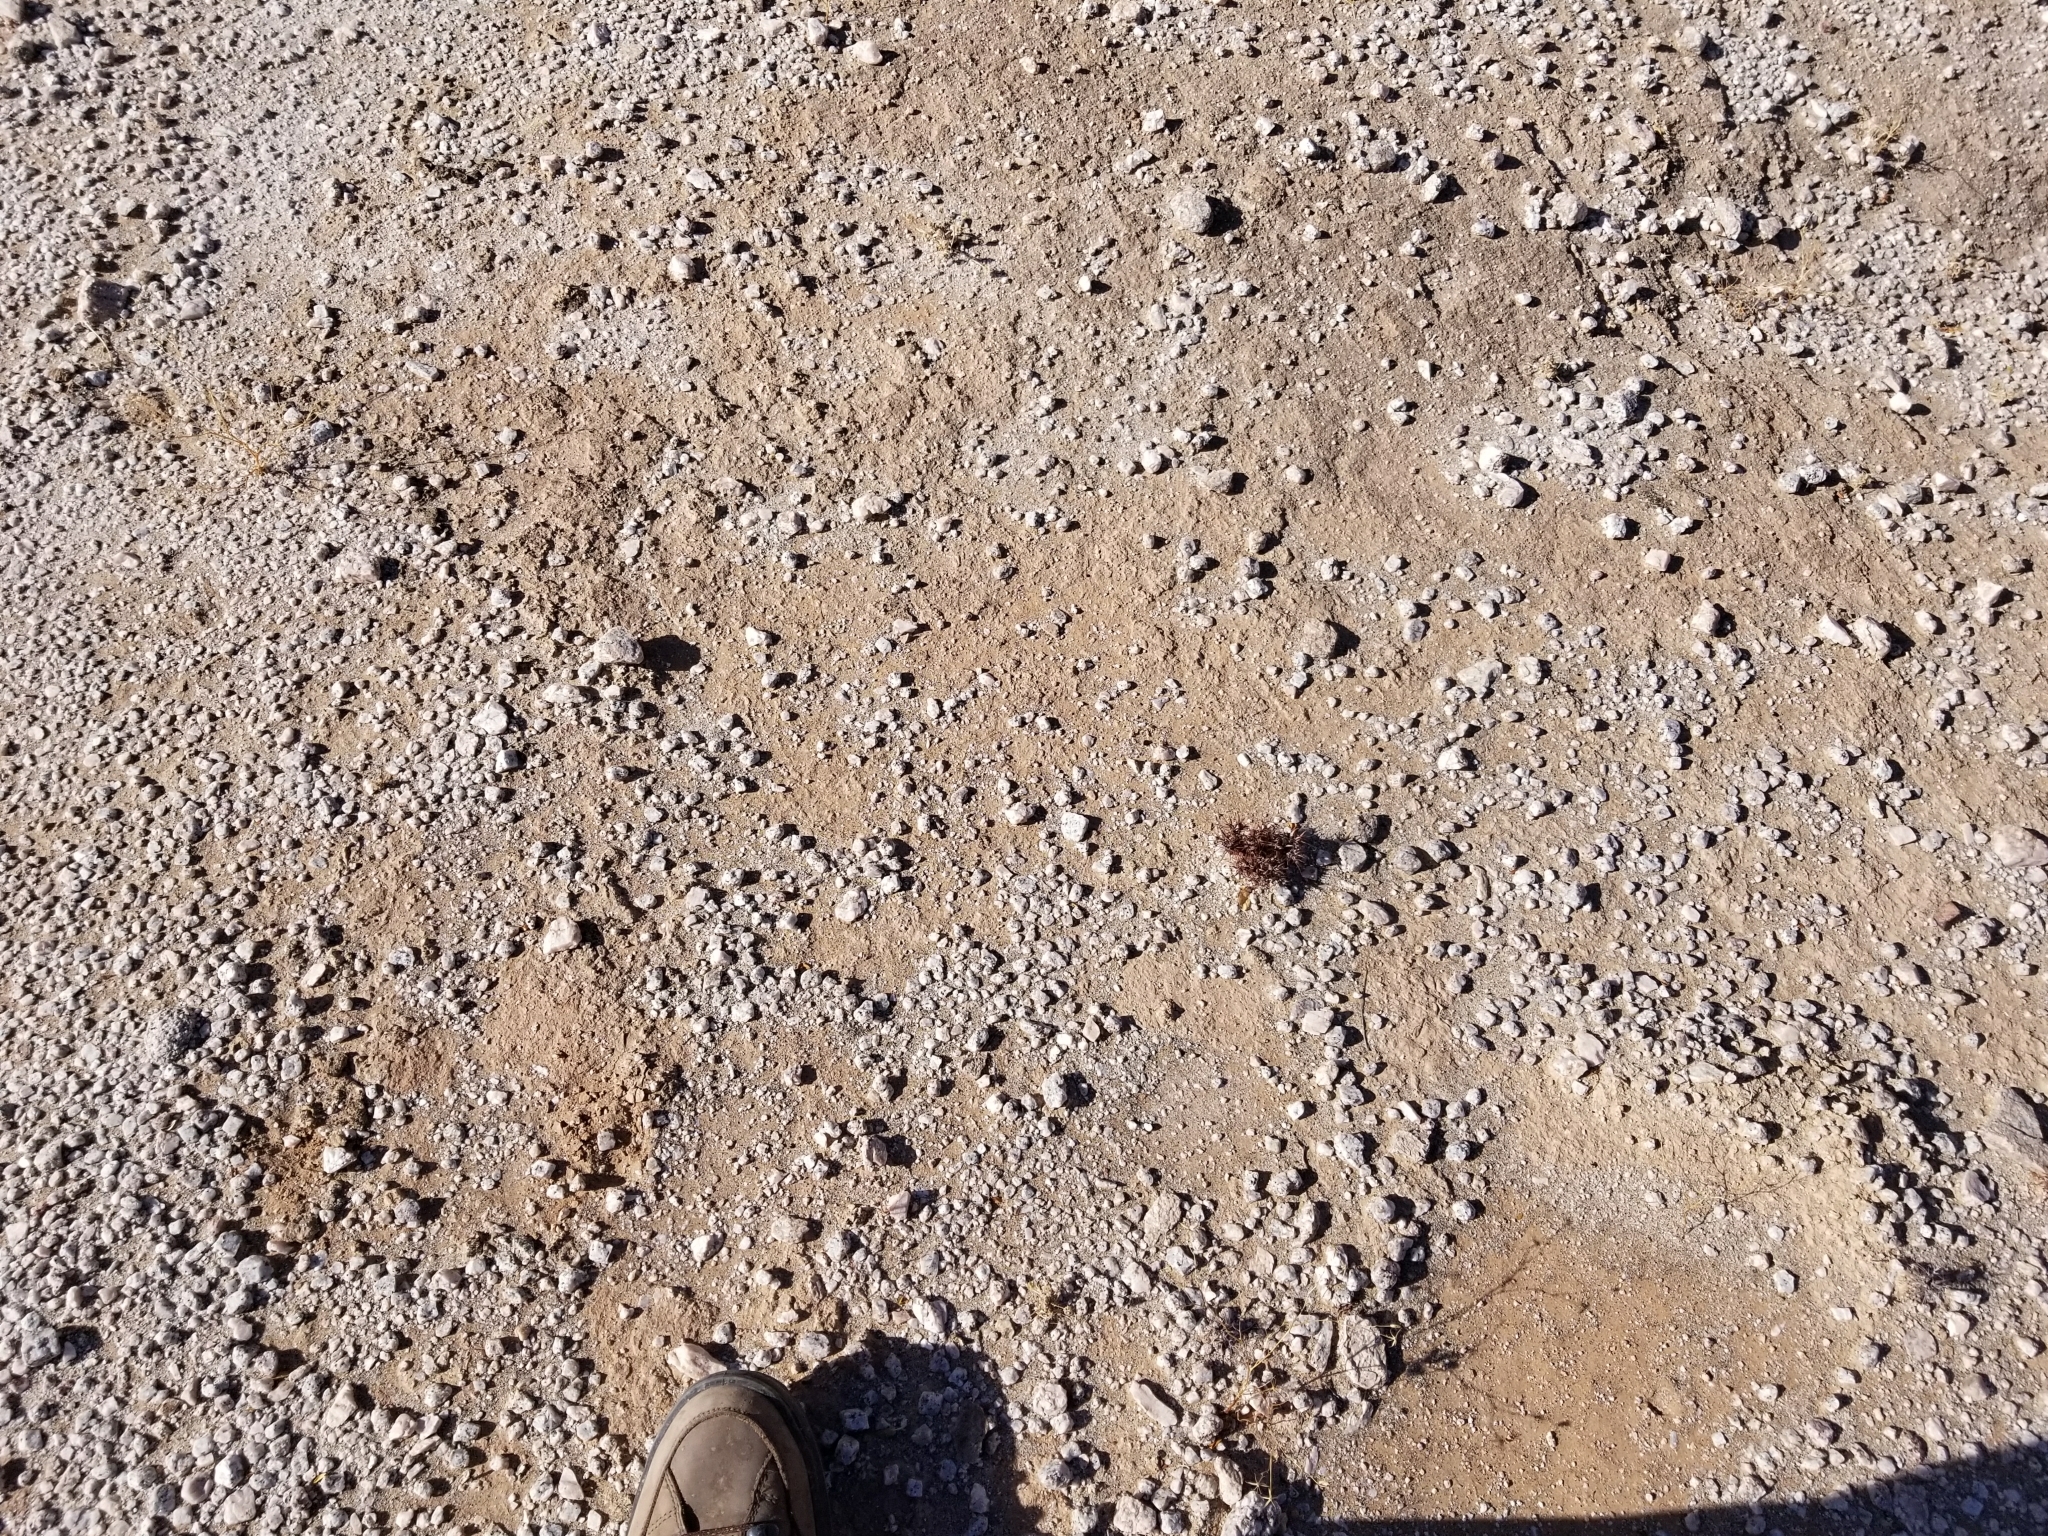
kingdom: Plantae
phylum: Tracheophyta
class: Magnoliopsida
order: Caryophyllales
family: Polygonaceae
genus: Chorizanthe
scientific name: Chorizanthe rigida
